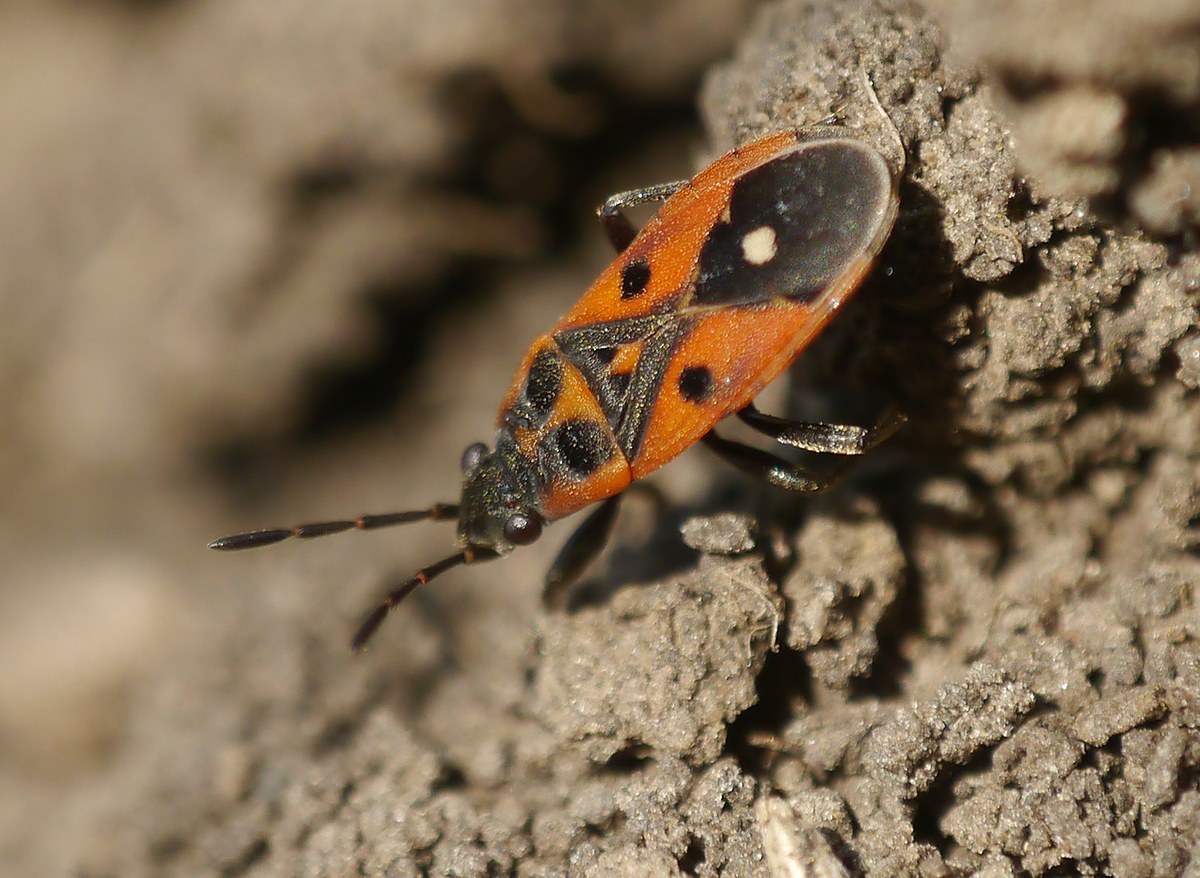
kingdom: Animalia
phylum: Arthropoda
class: Insecta
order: Hemiptera
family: Lygaeidae
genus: Melanocoryphus
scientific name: Melanocoryphus tristrami
